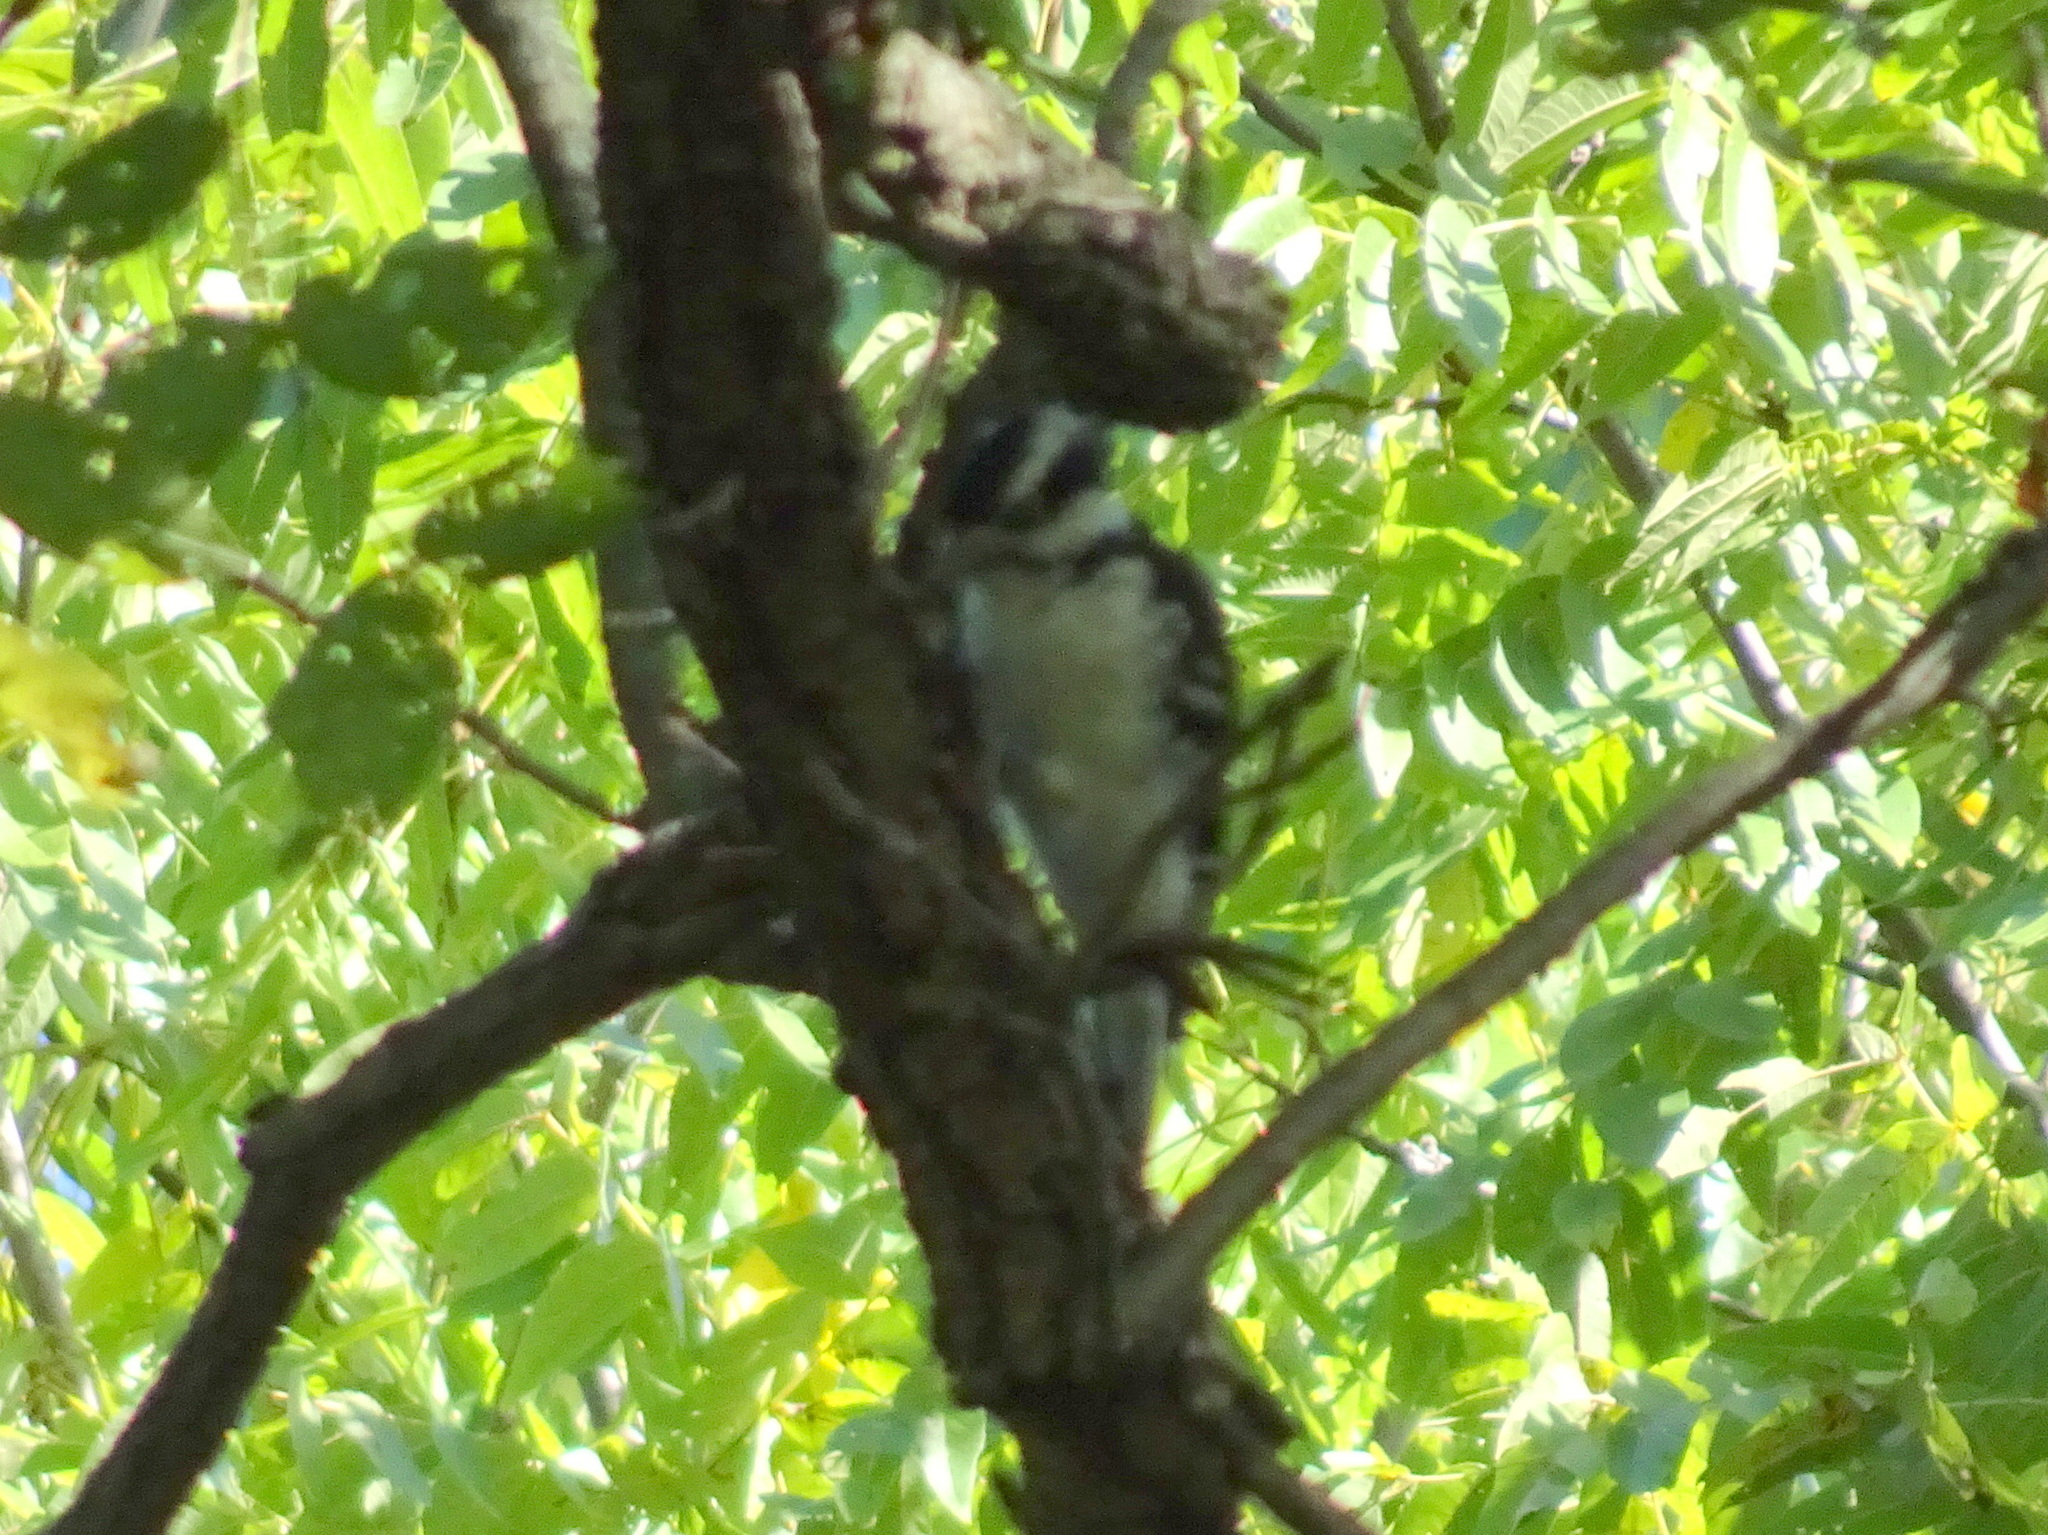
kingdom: Animalia
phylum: Chordata
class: Aves
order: Piciformes
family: Picidae
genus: Leuconotopicus
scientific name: Leuconotopicus villosus
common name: Hairy woodpecker
